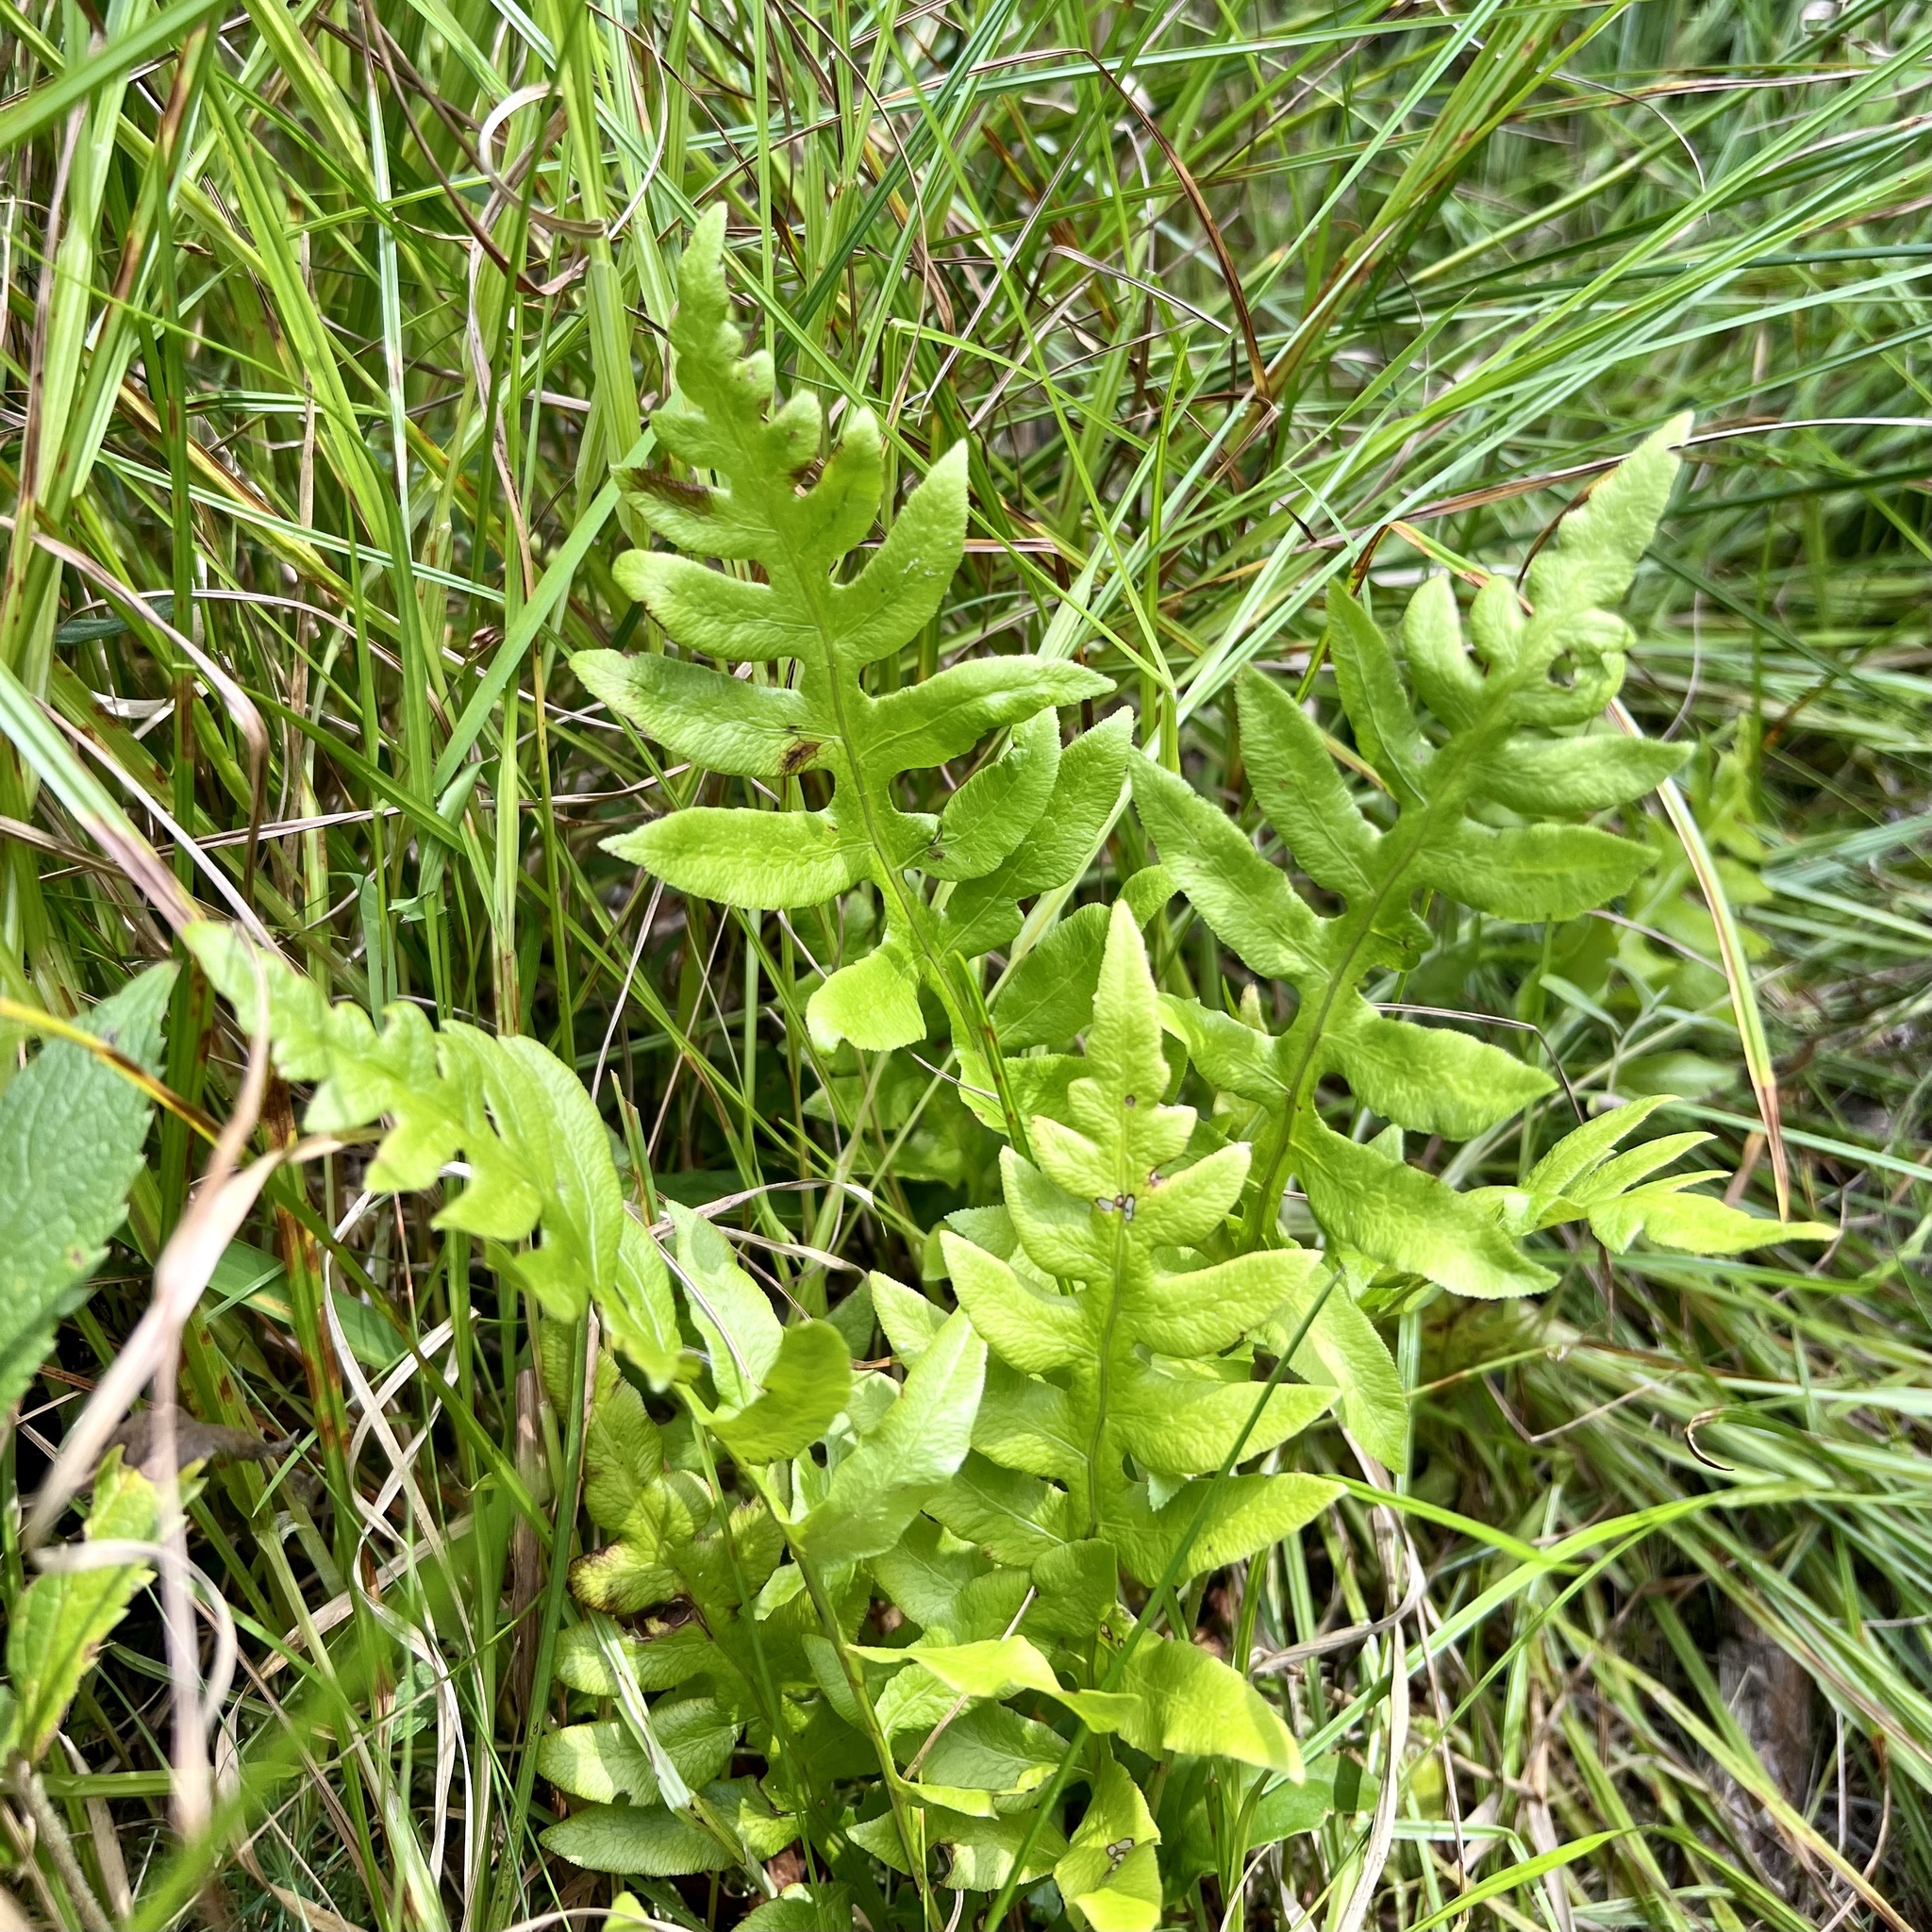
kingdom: Plantae
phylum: Tracheophyta
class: Polypodiopsida
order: Polypodiales
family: Blechnaceae
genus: Lorinseria
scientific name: Lorinseria areolata
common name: Dwarf chain fern
